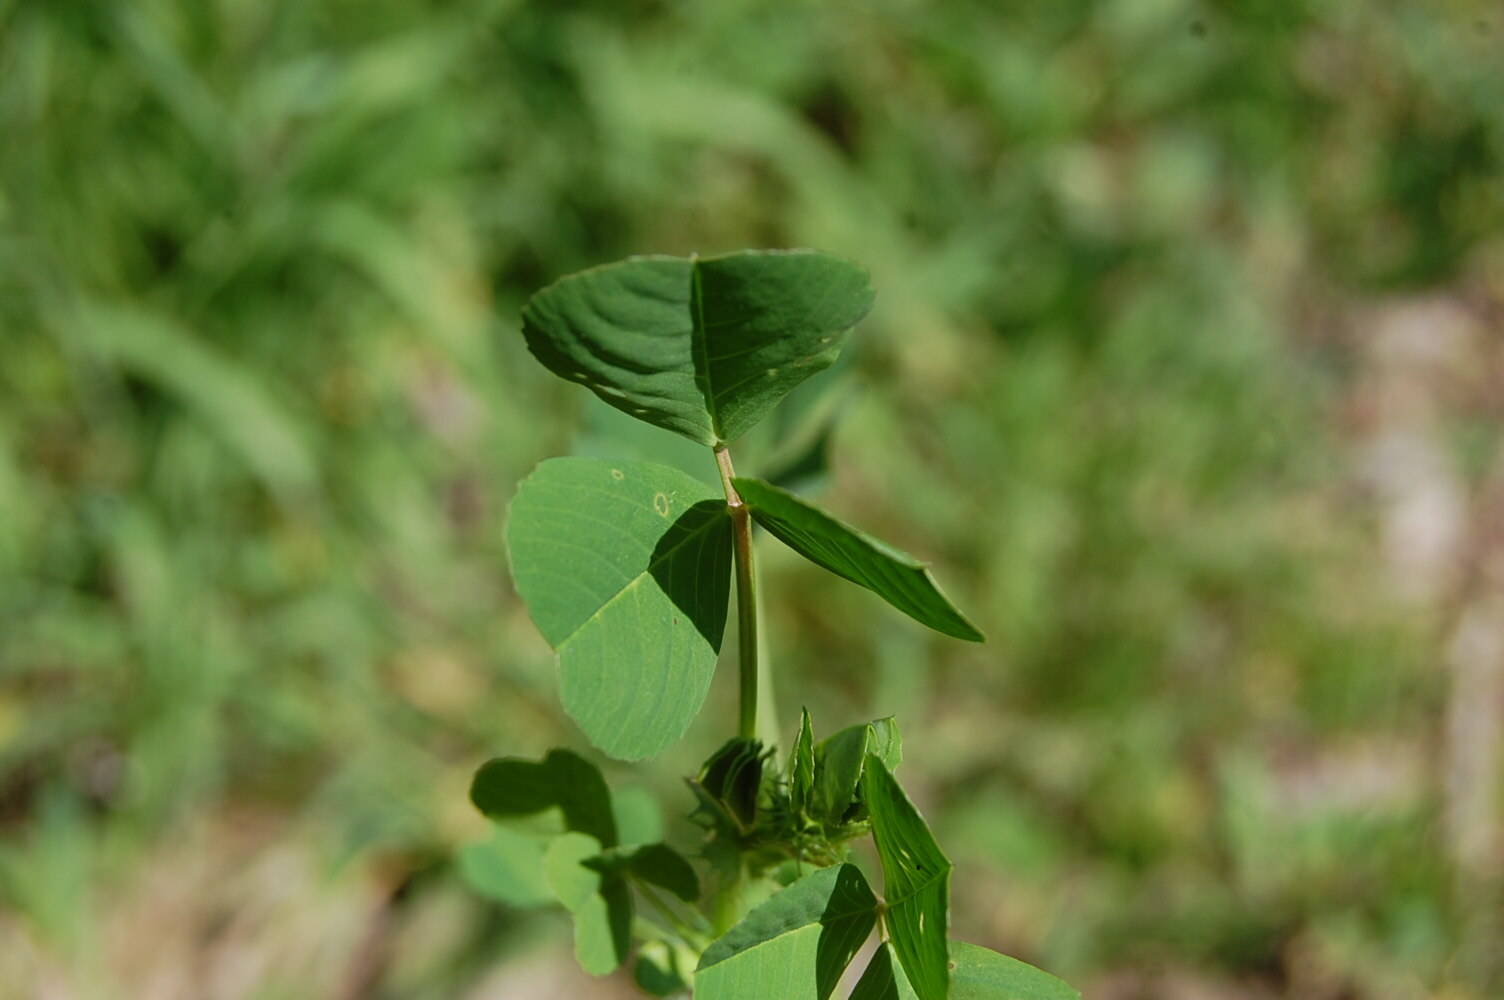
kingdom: Plantae
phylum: Tracheophyta
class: Magnoliopsida
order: Fabales
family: Fabaceae
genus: Medicago
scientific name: Medicago polymorpha
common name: Burclover
